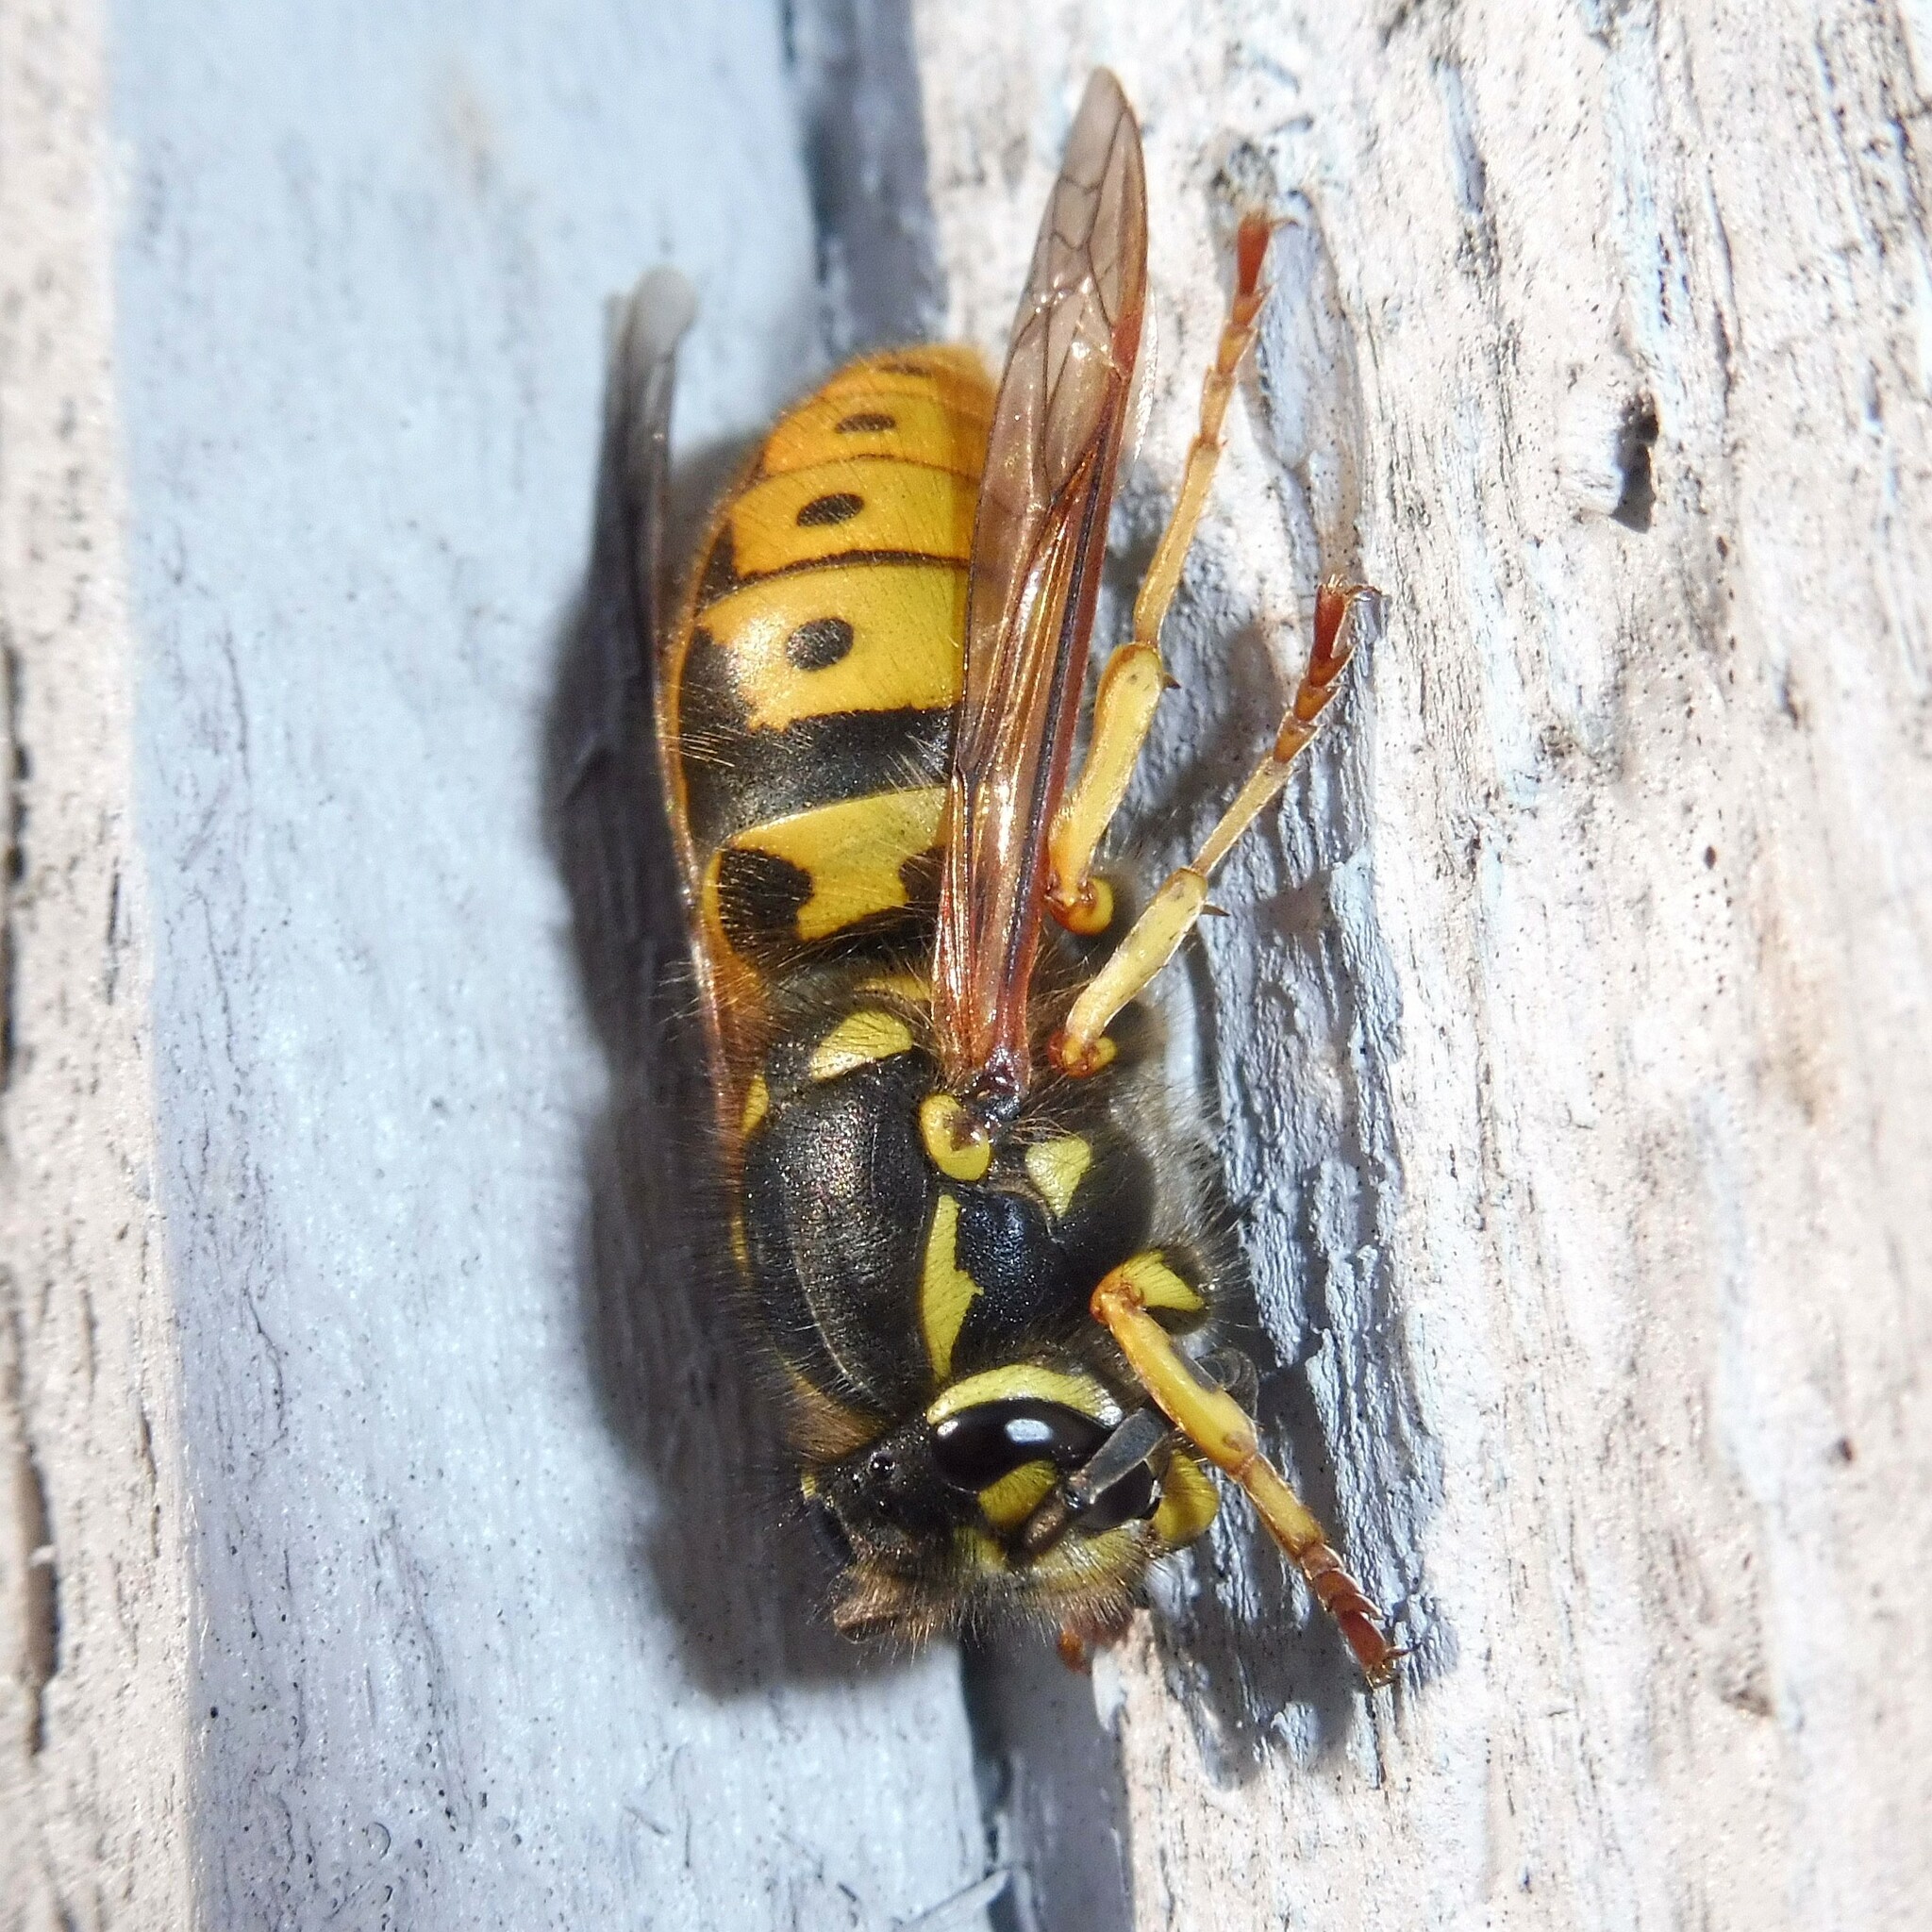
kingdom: Animalia
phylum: Arthropoda
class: Insecta
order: Hymenoptera
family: Vespidae
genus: Vespula
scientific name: Vespula germanica
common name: German wasp
